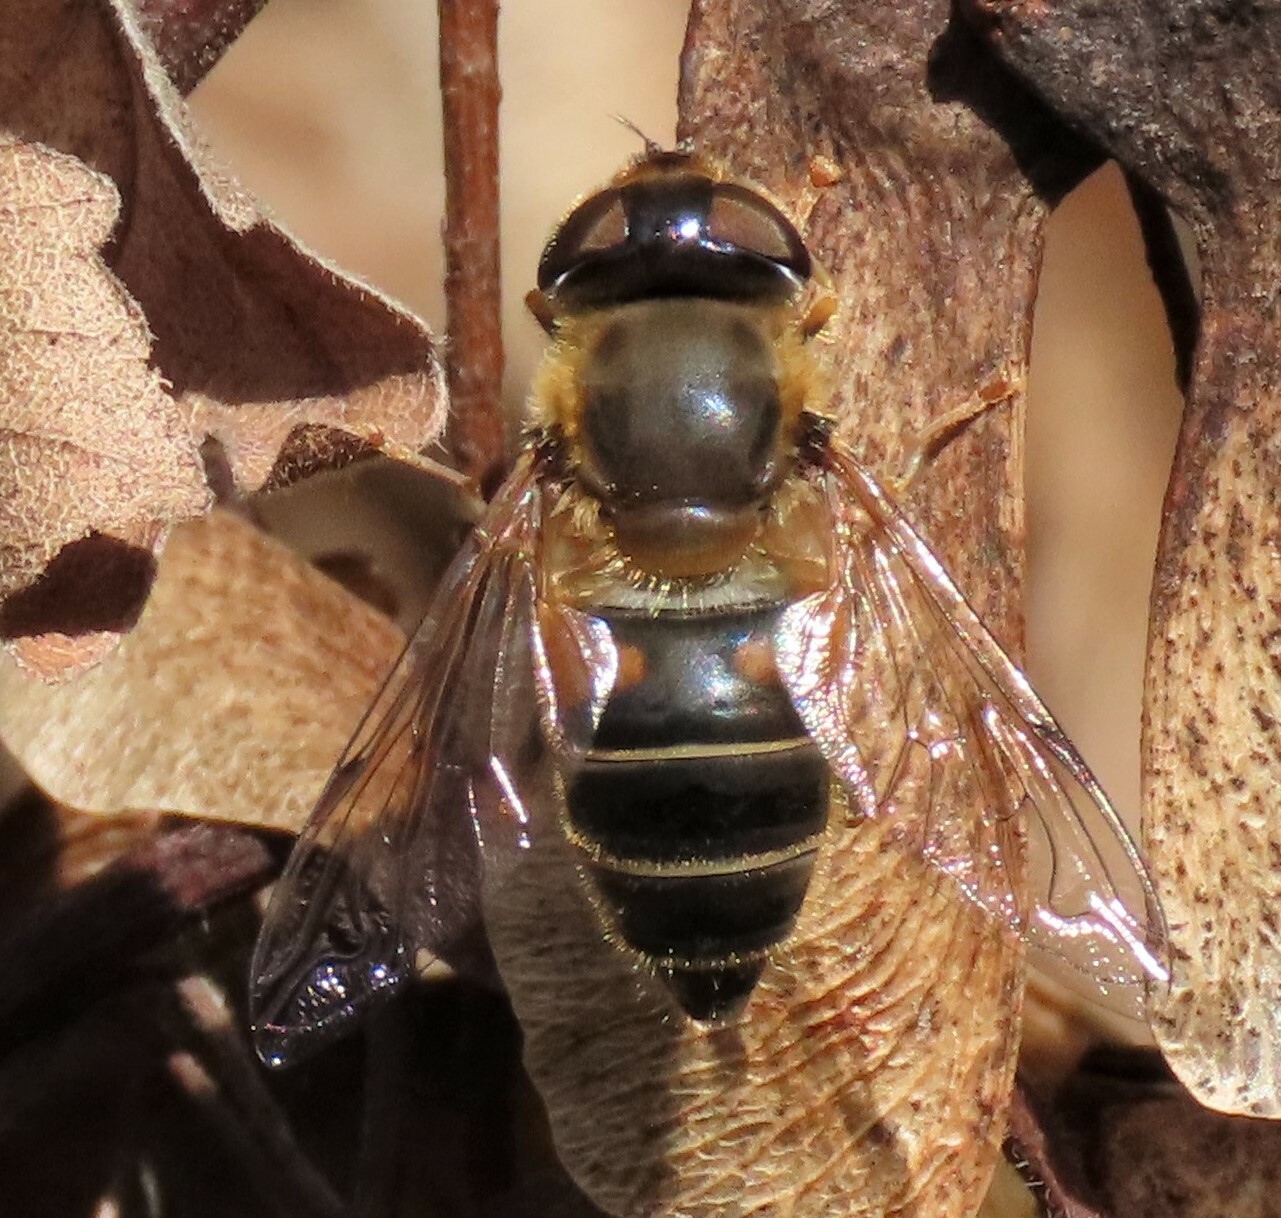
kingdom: Animalia
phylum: Arthropoda
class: Insecta
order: Diptera
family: Syrphidae
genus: Eristalis
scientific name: Eristalis pertinax
